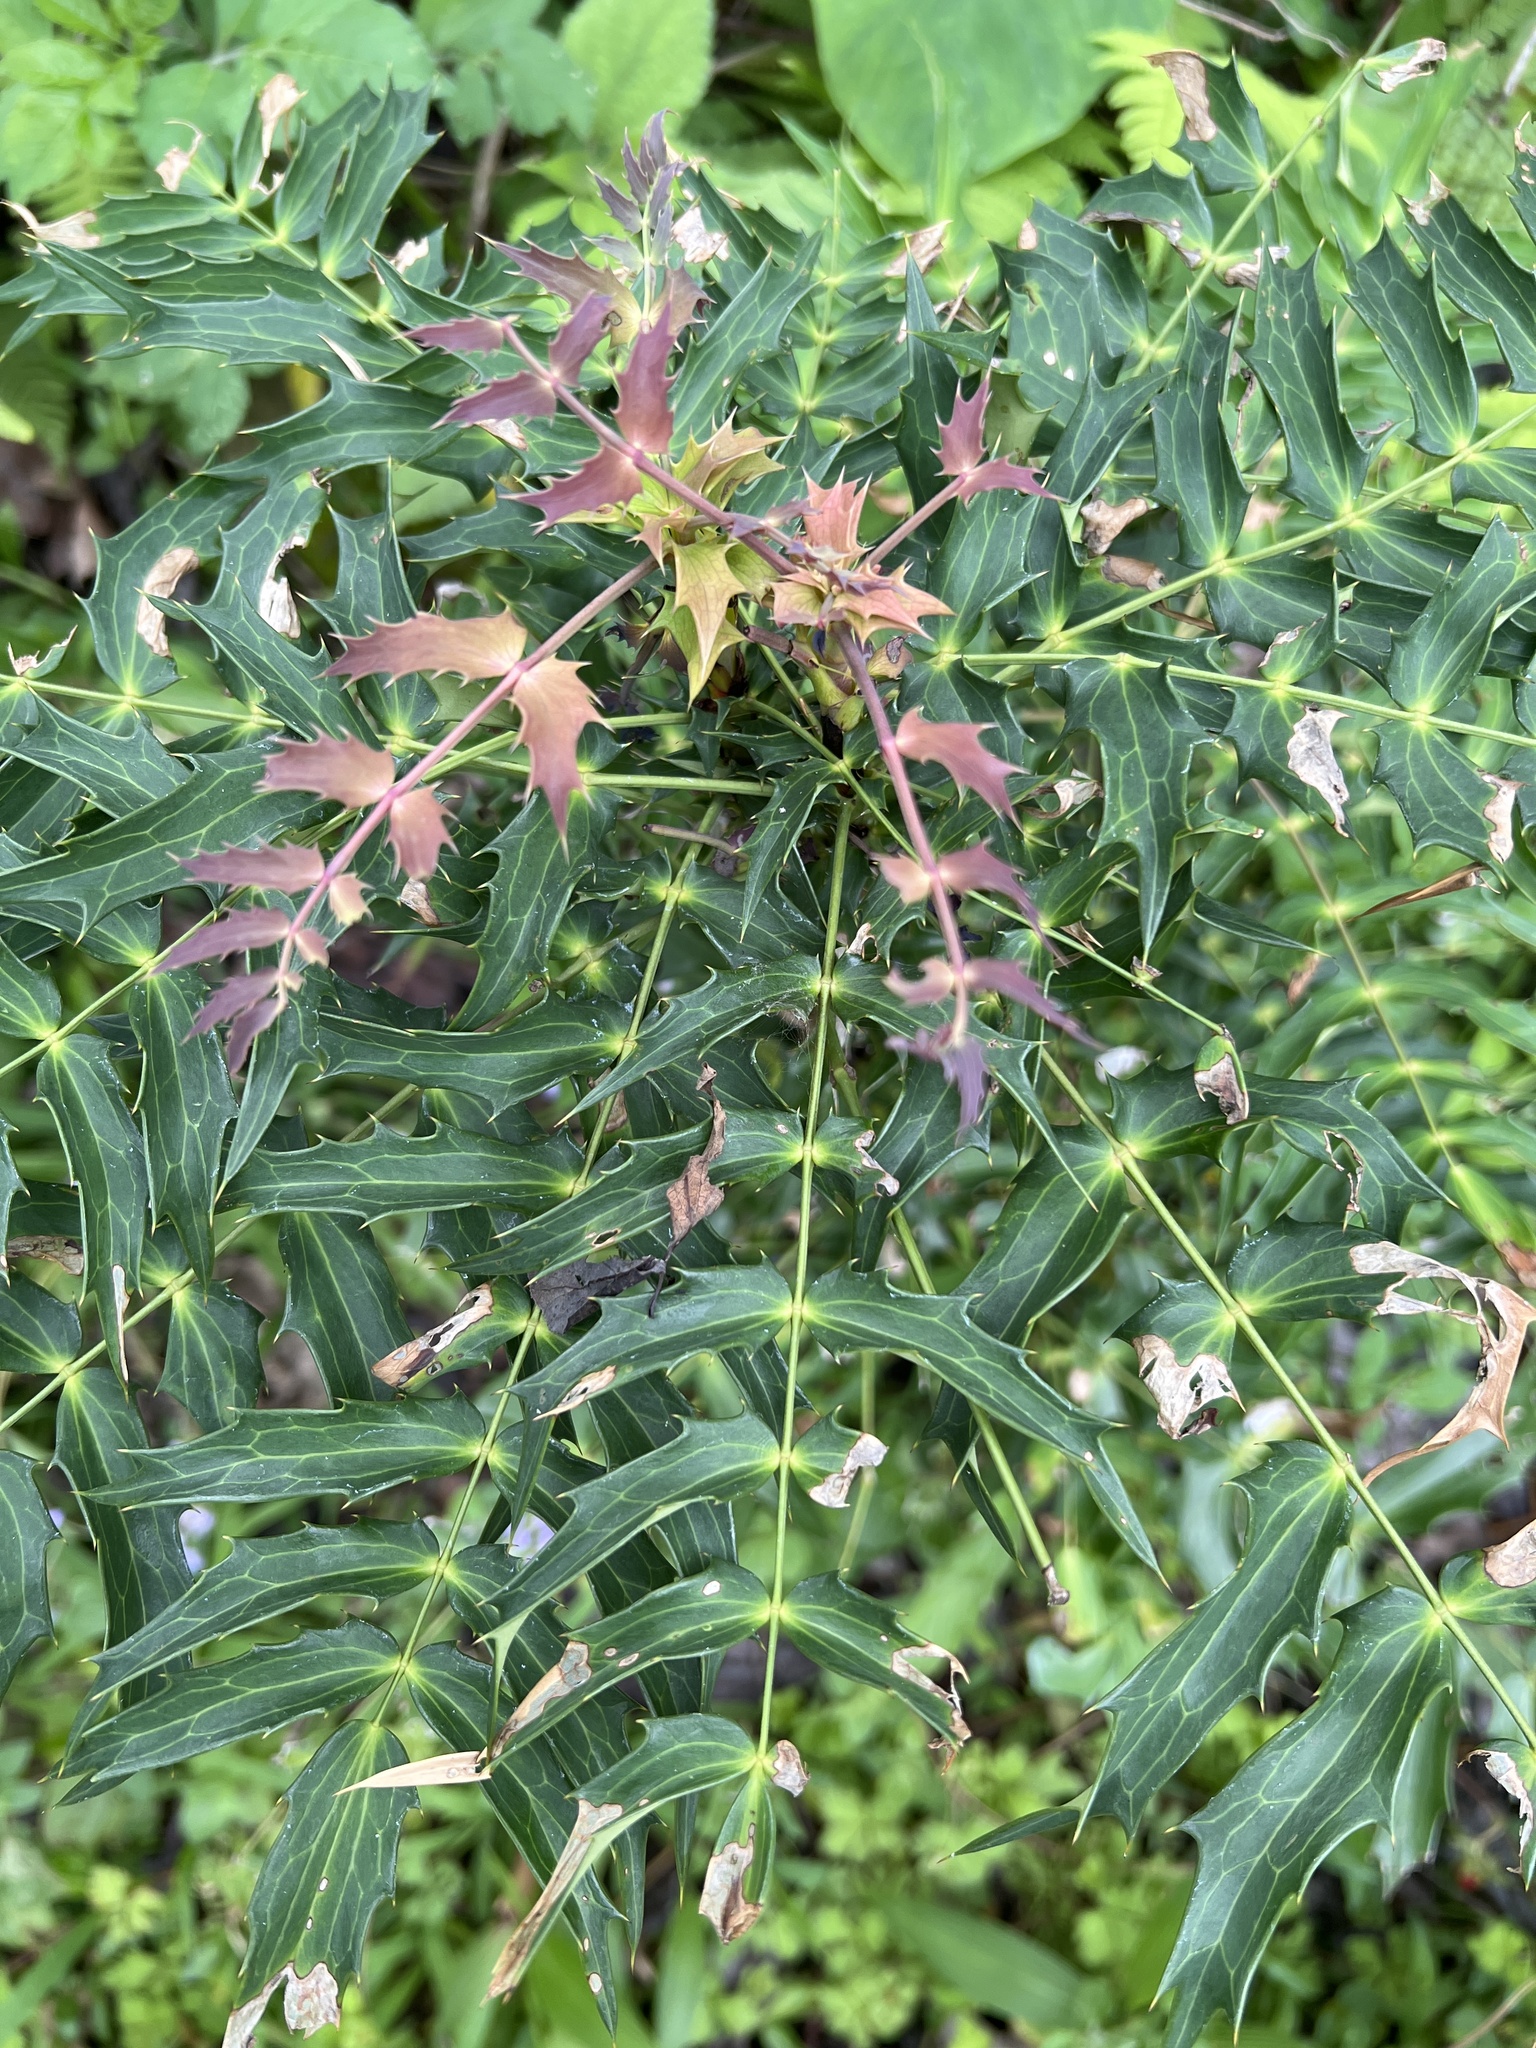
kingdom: Plantae
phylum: Tracheophyta
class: Magnoliopsida
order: Ranunculales
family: Berberidaceae
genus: Mahonia
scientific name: Mahonia oiwakensis
